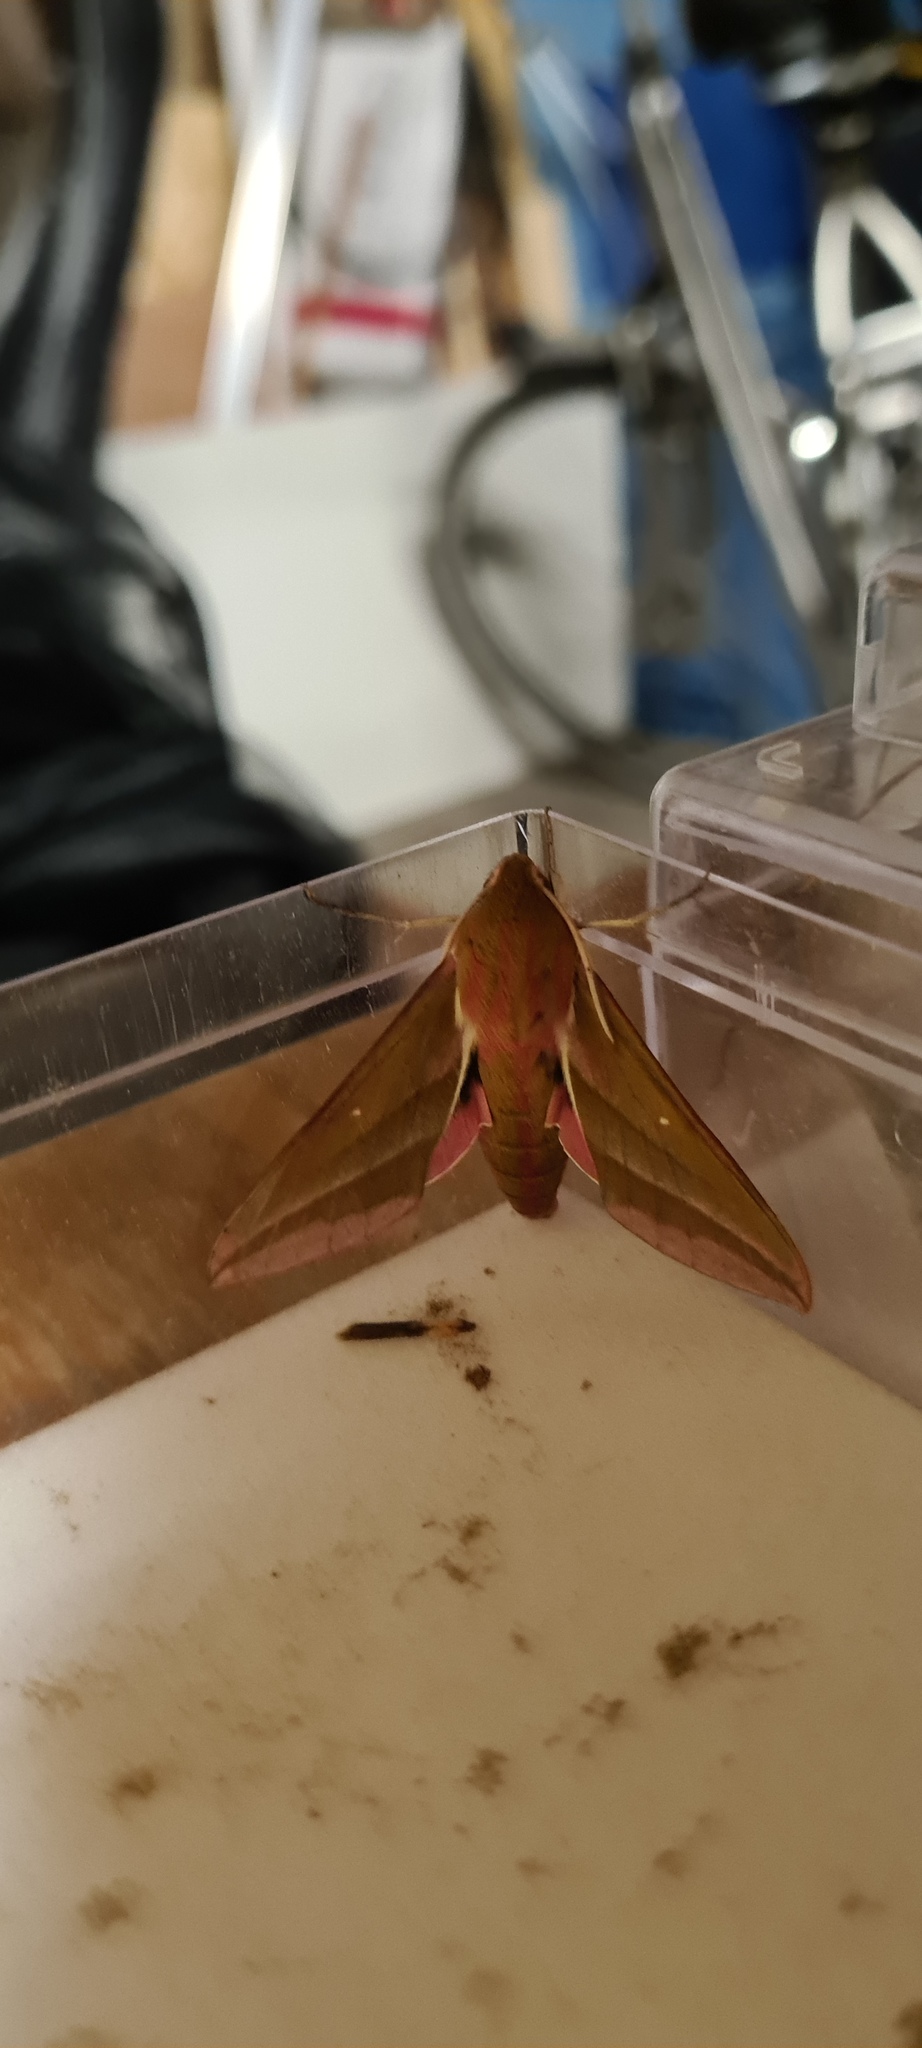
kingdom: Animalia
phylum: Arthropoda
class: Insecta
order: Lepidoptera
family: Sphingidae
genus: Deilephila
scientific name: Deilephila elpenor
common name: Elephant hawk-moth
